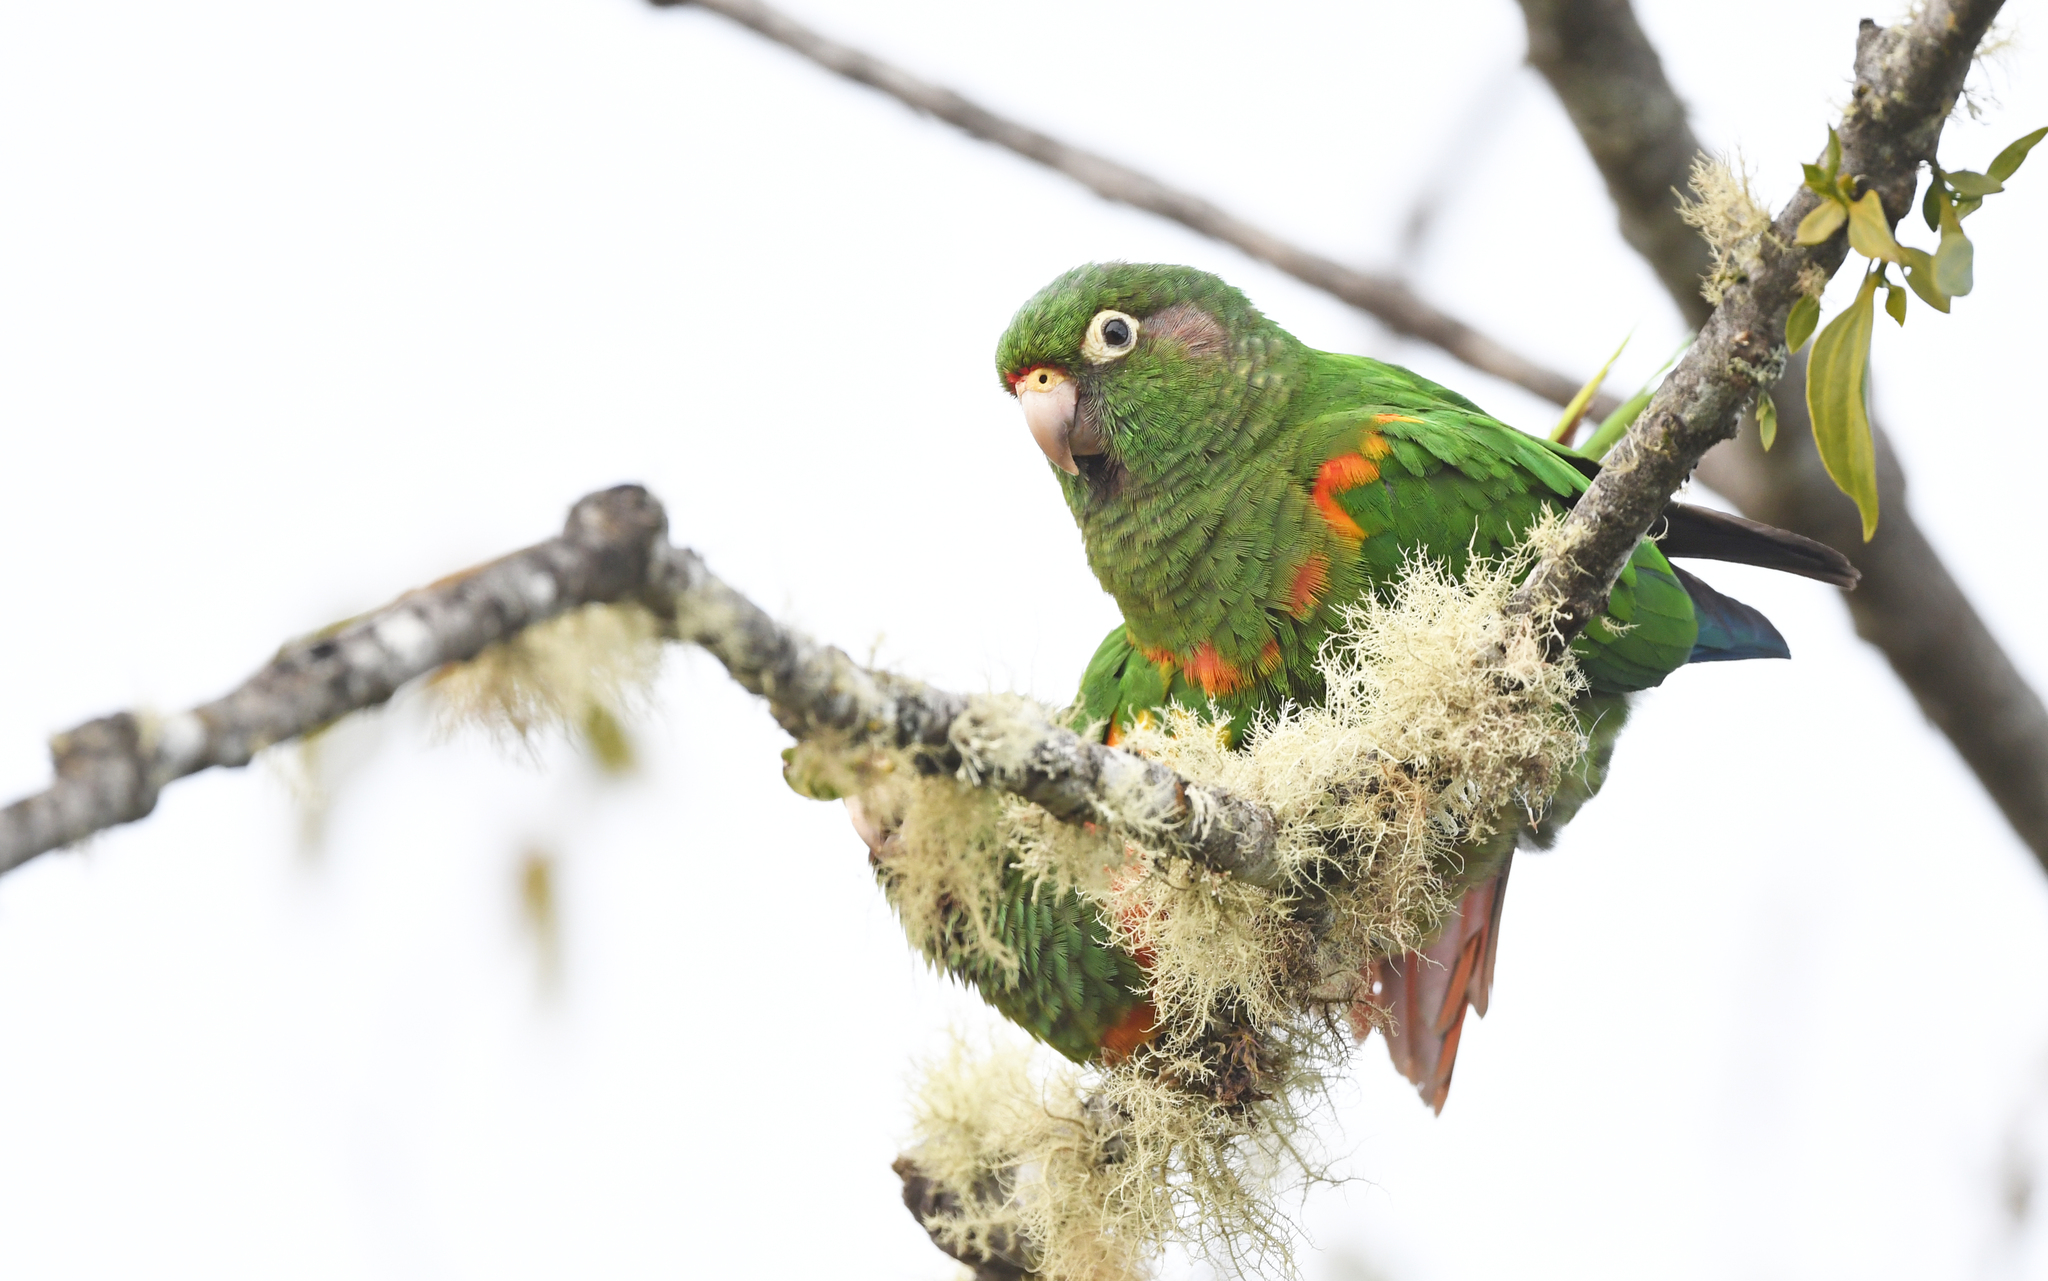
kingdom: Animalia
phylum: Chordata
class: Aves
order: Psittaciformes
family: Psittacidae
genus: Pyrrhura
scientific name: Pyrrhura viridicata
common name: Santa marta parakeet
